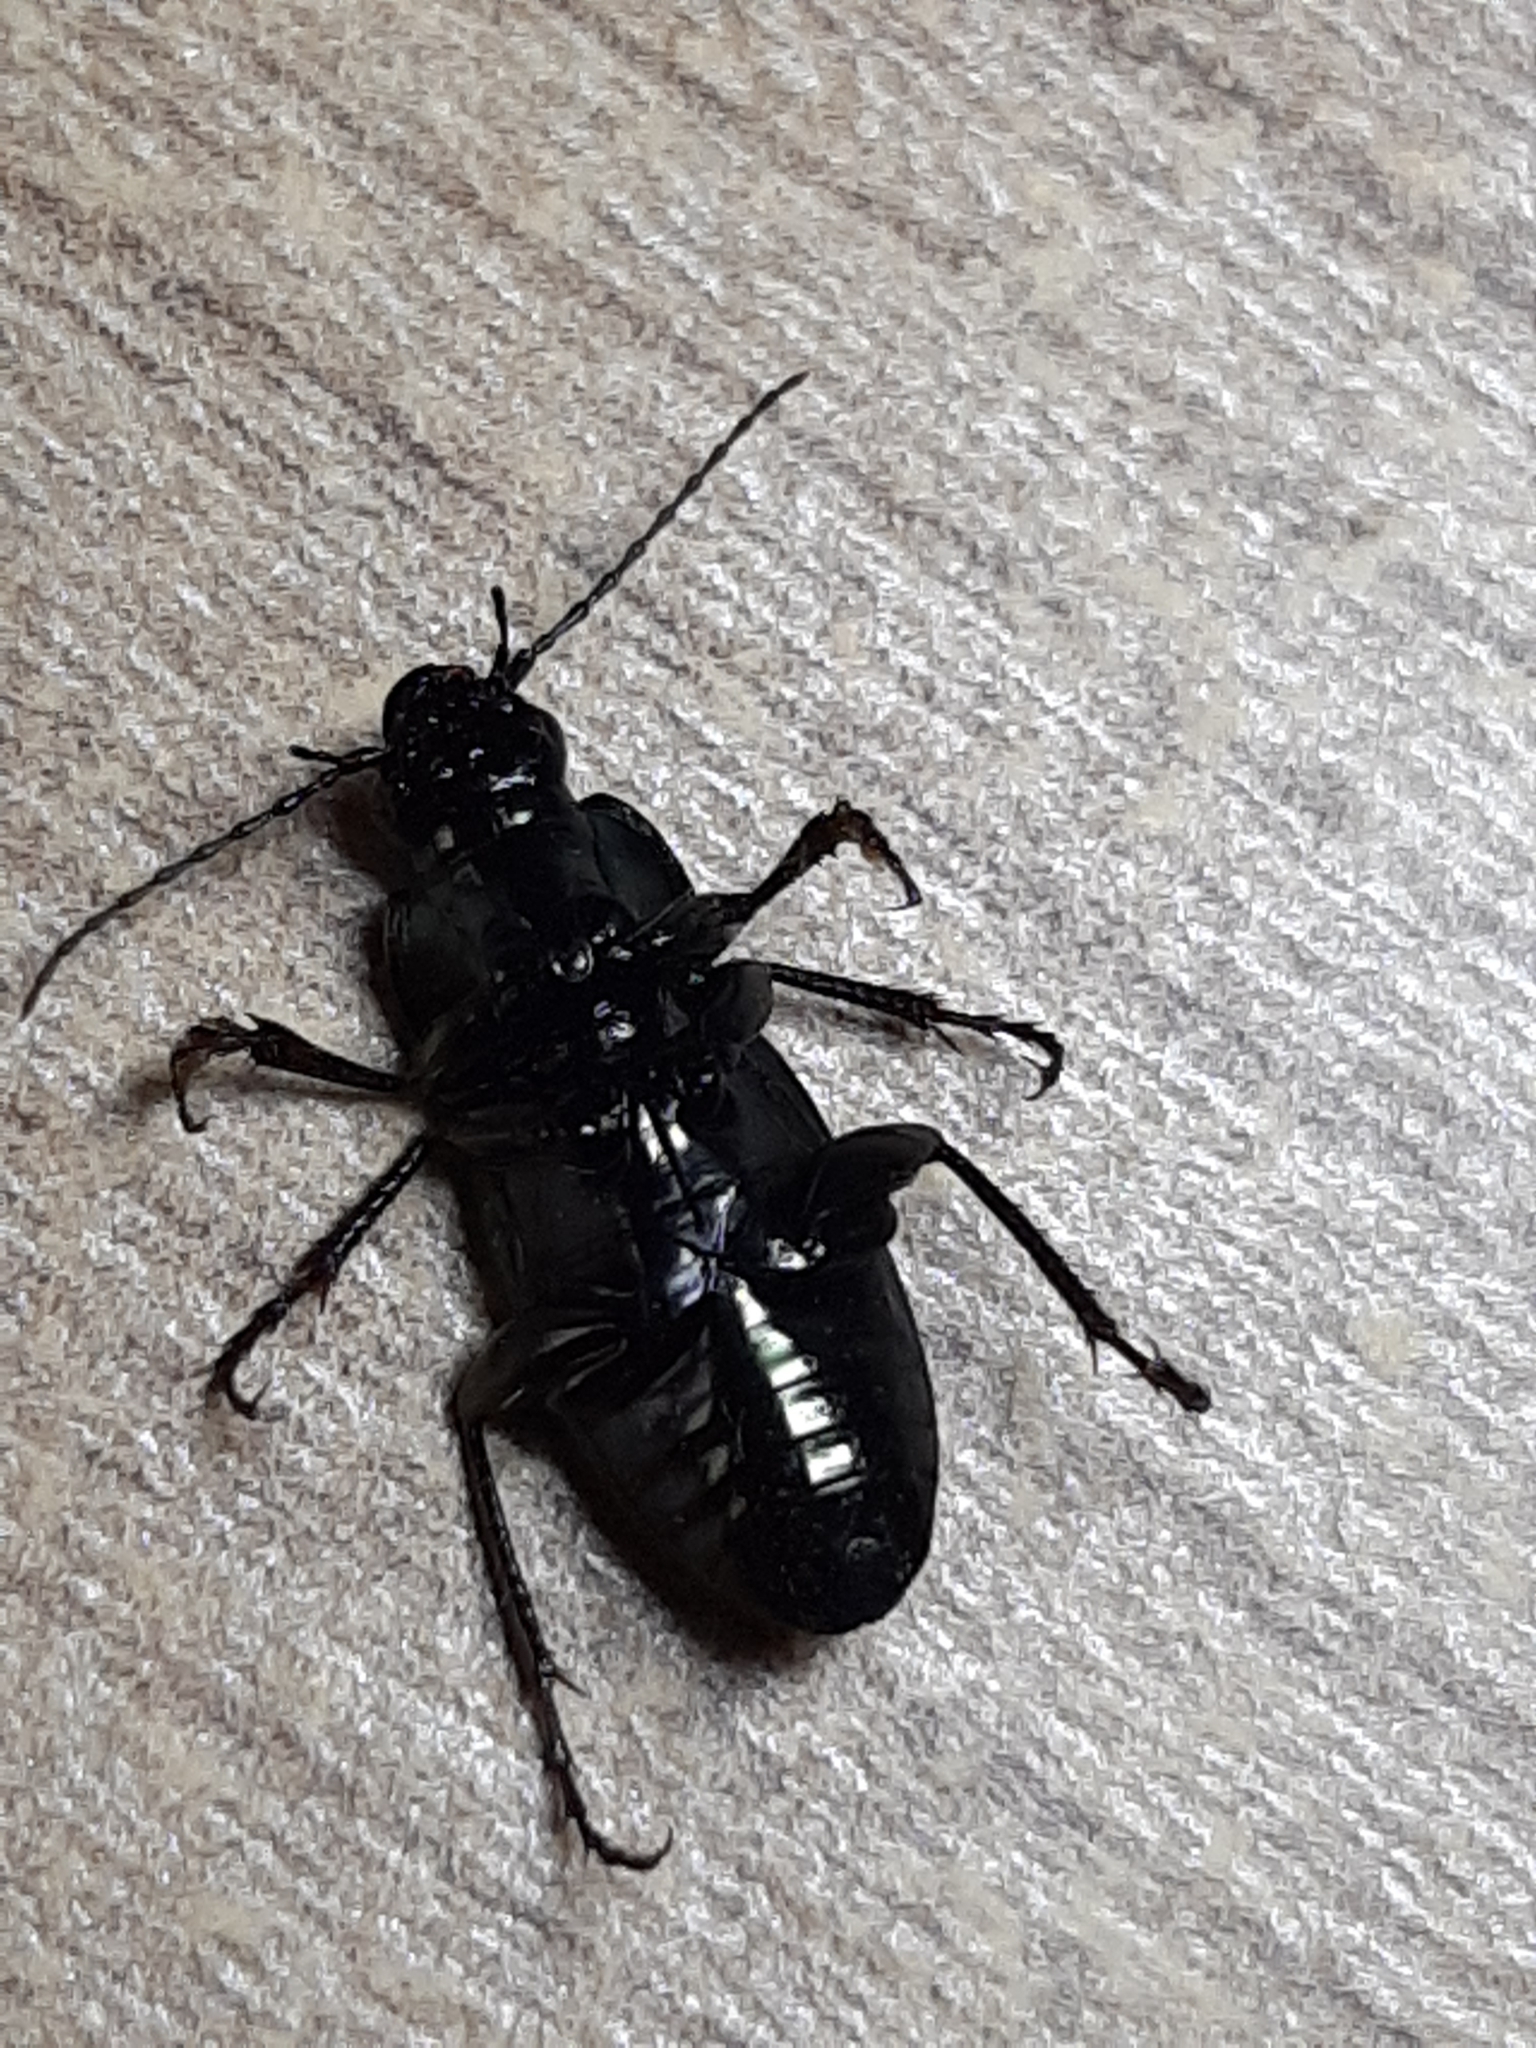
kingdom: Animalia
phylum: Arthropoda
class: Insecta
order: Coleoptera
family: Carabidae
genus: Poecilus
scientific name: Poecilus lepidus
